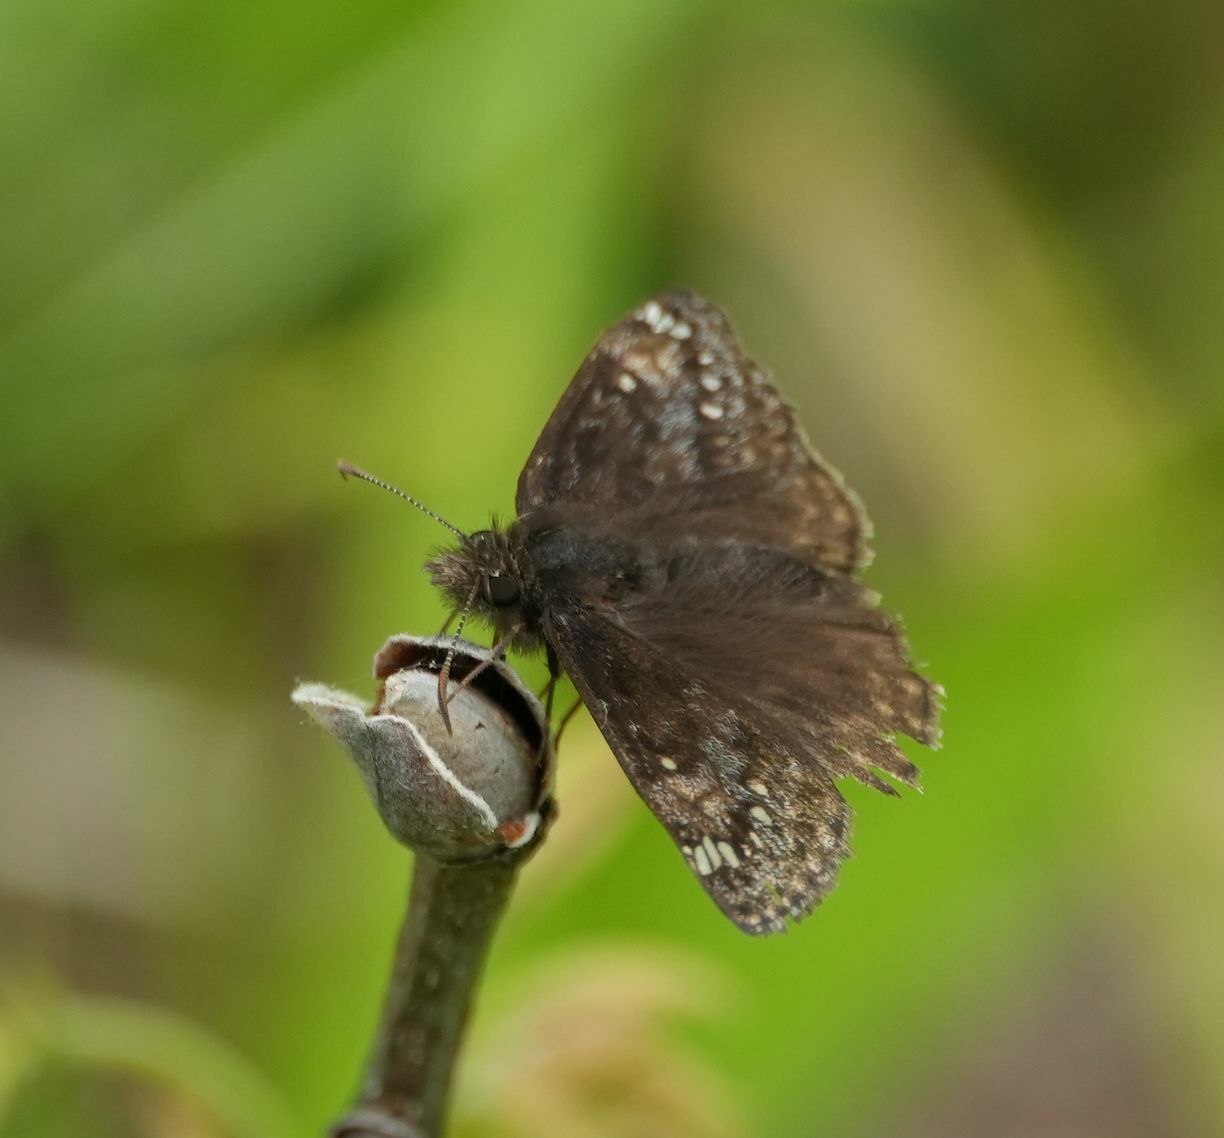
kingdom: Animalia
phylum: Arthropoda
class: Insecta
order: Lepidoptera
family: Hesperiidae
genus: Erynnis
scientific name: Erynnis juvenalis
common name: Juvenal's duskywing
